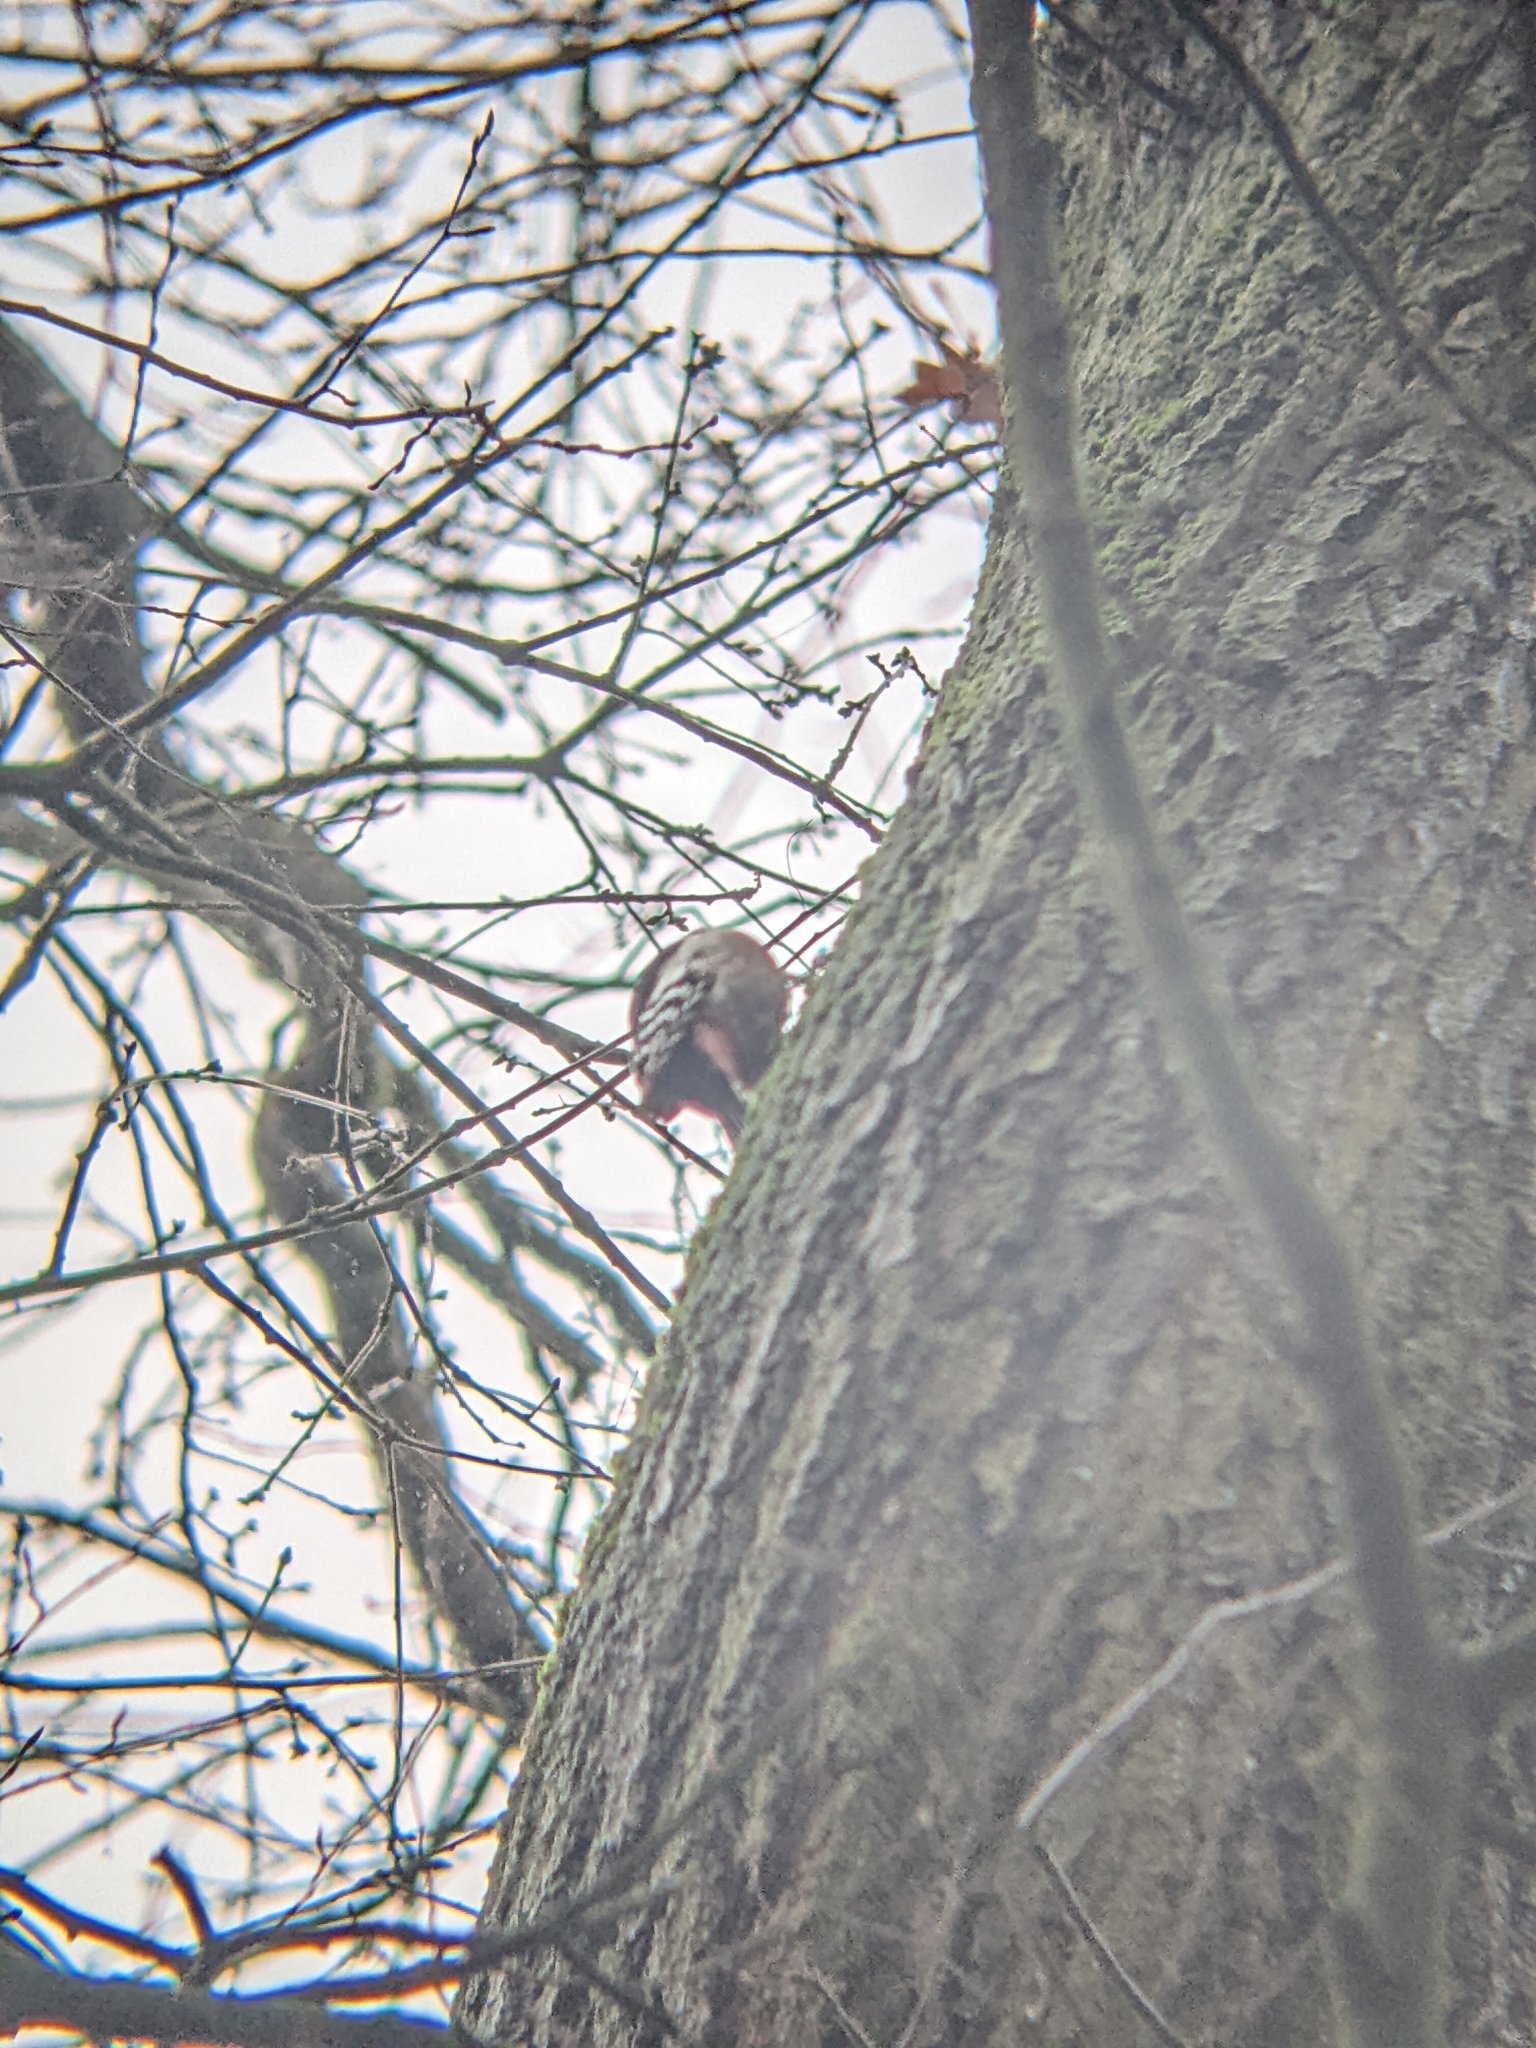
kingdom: Animalia
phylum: Chordata
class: Aves
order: Piciformes
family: Picidae
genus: Dendrocoptes
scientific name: Dendrocoptes medius
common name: Middle spotted woodpecker
